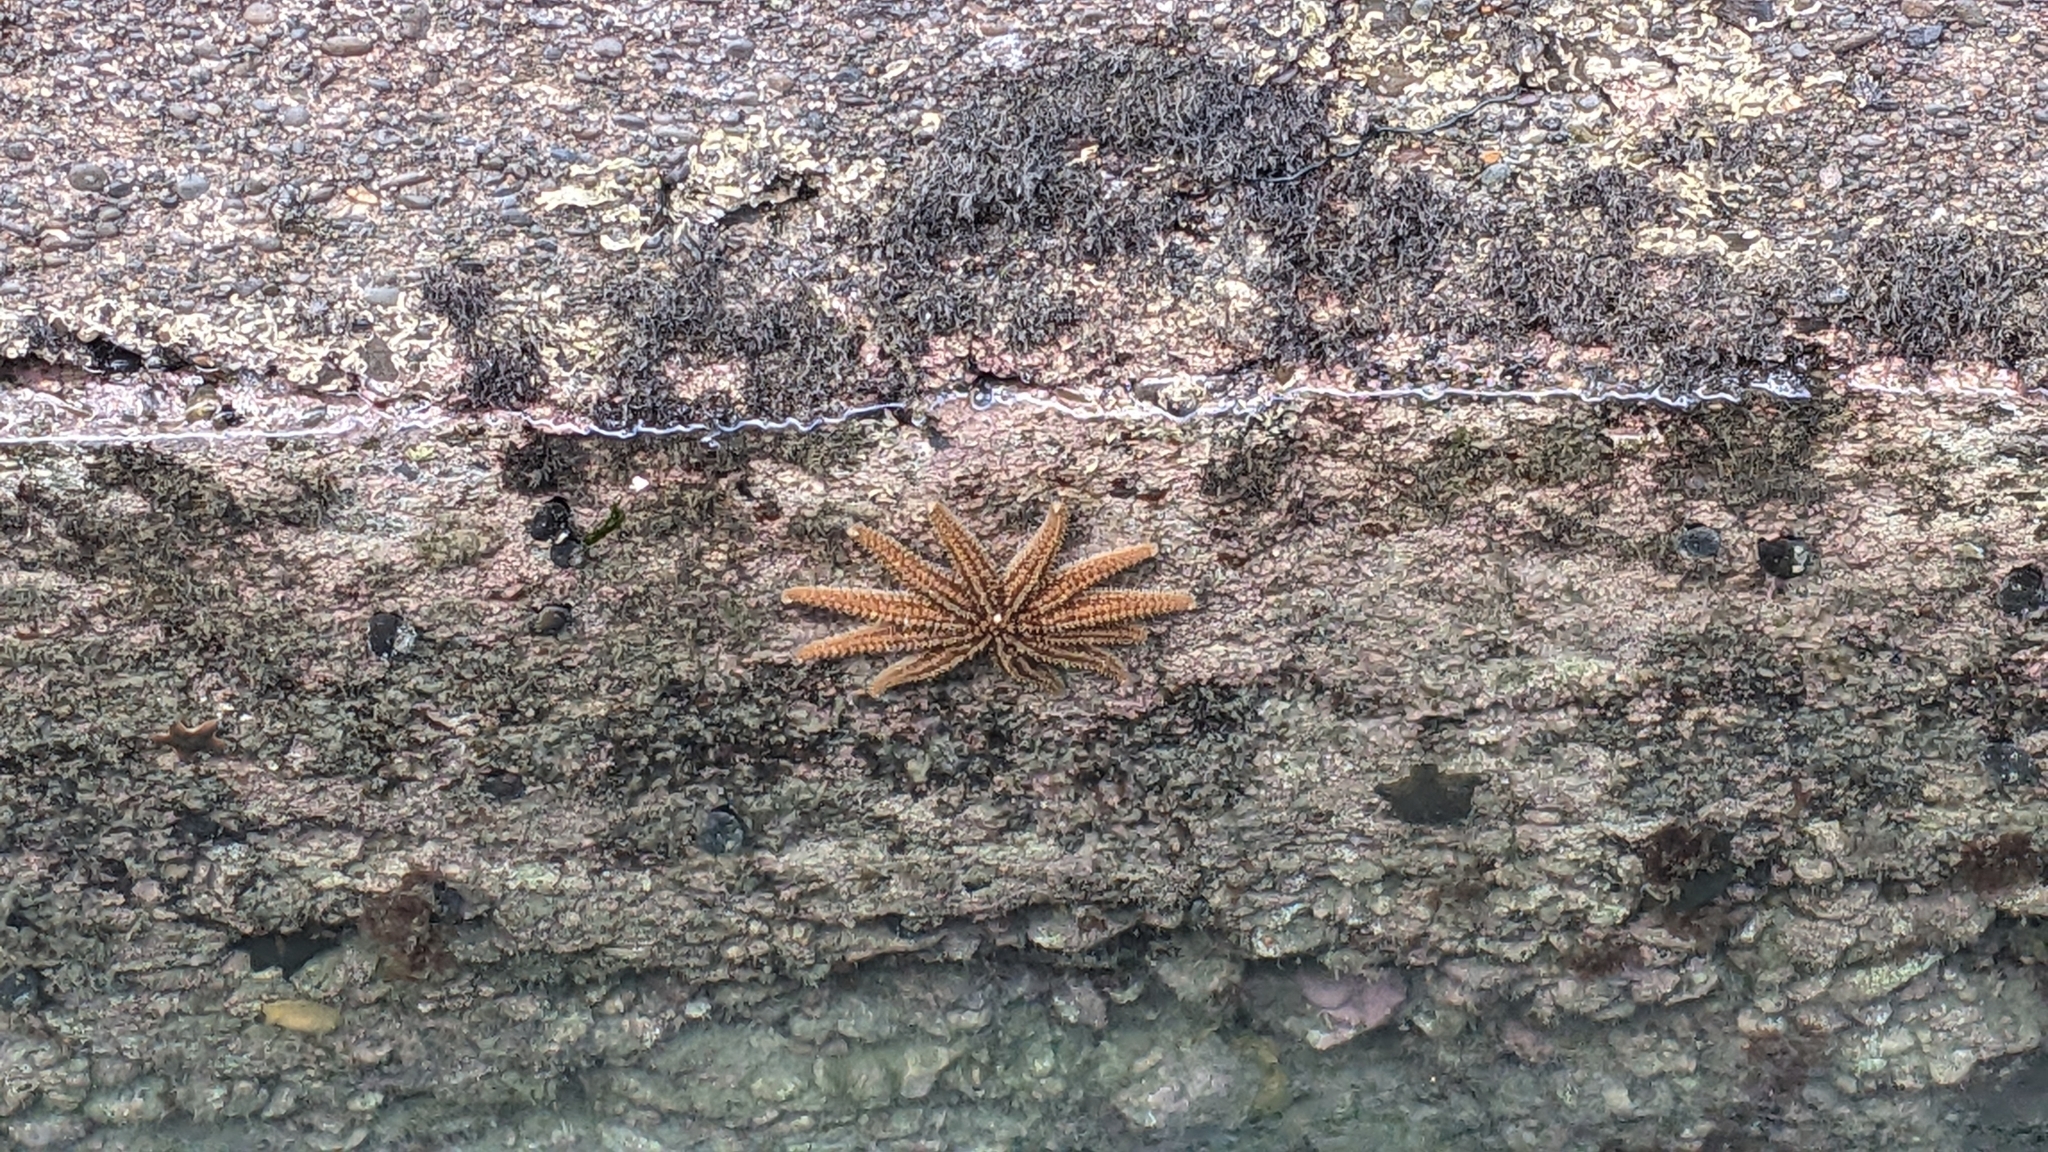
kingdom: Animalia
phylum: Echinodermata
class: Asteroidea
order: Forcipulatida
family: Asteriidae
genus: Coscinasterias
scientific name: Coscinasterias muricata
